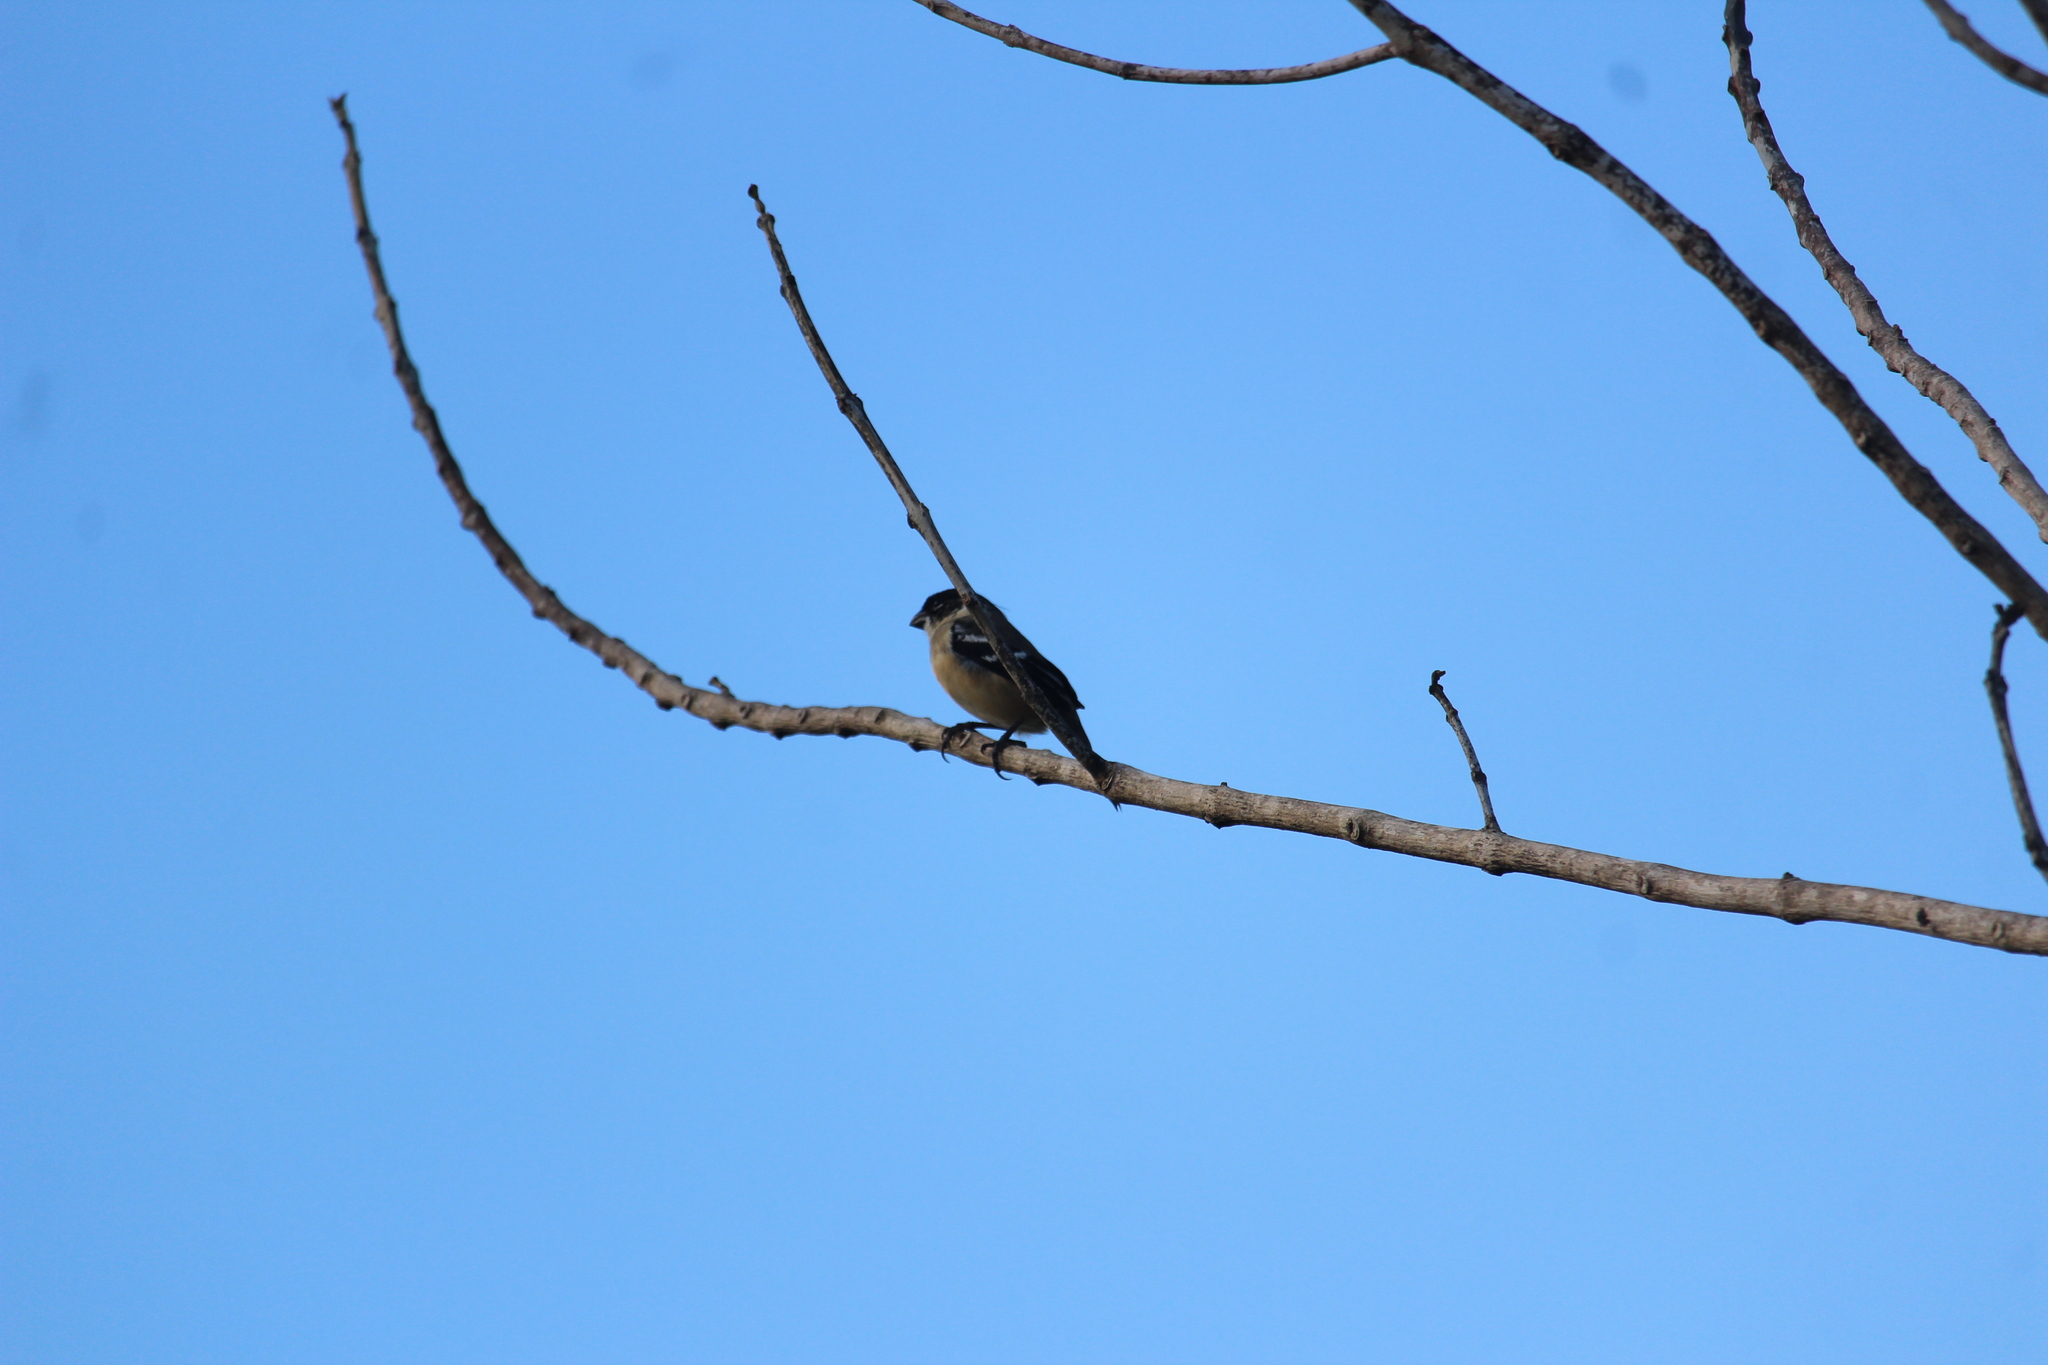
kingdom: Animalia
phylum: Chordata
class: Aves
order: Passeriformes
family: Thraupidae
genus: Sporophila
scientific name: Sporophila morelleti
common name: Morelet's seedeater
